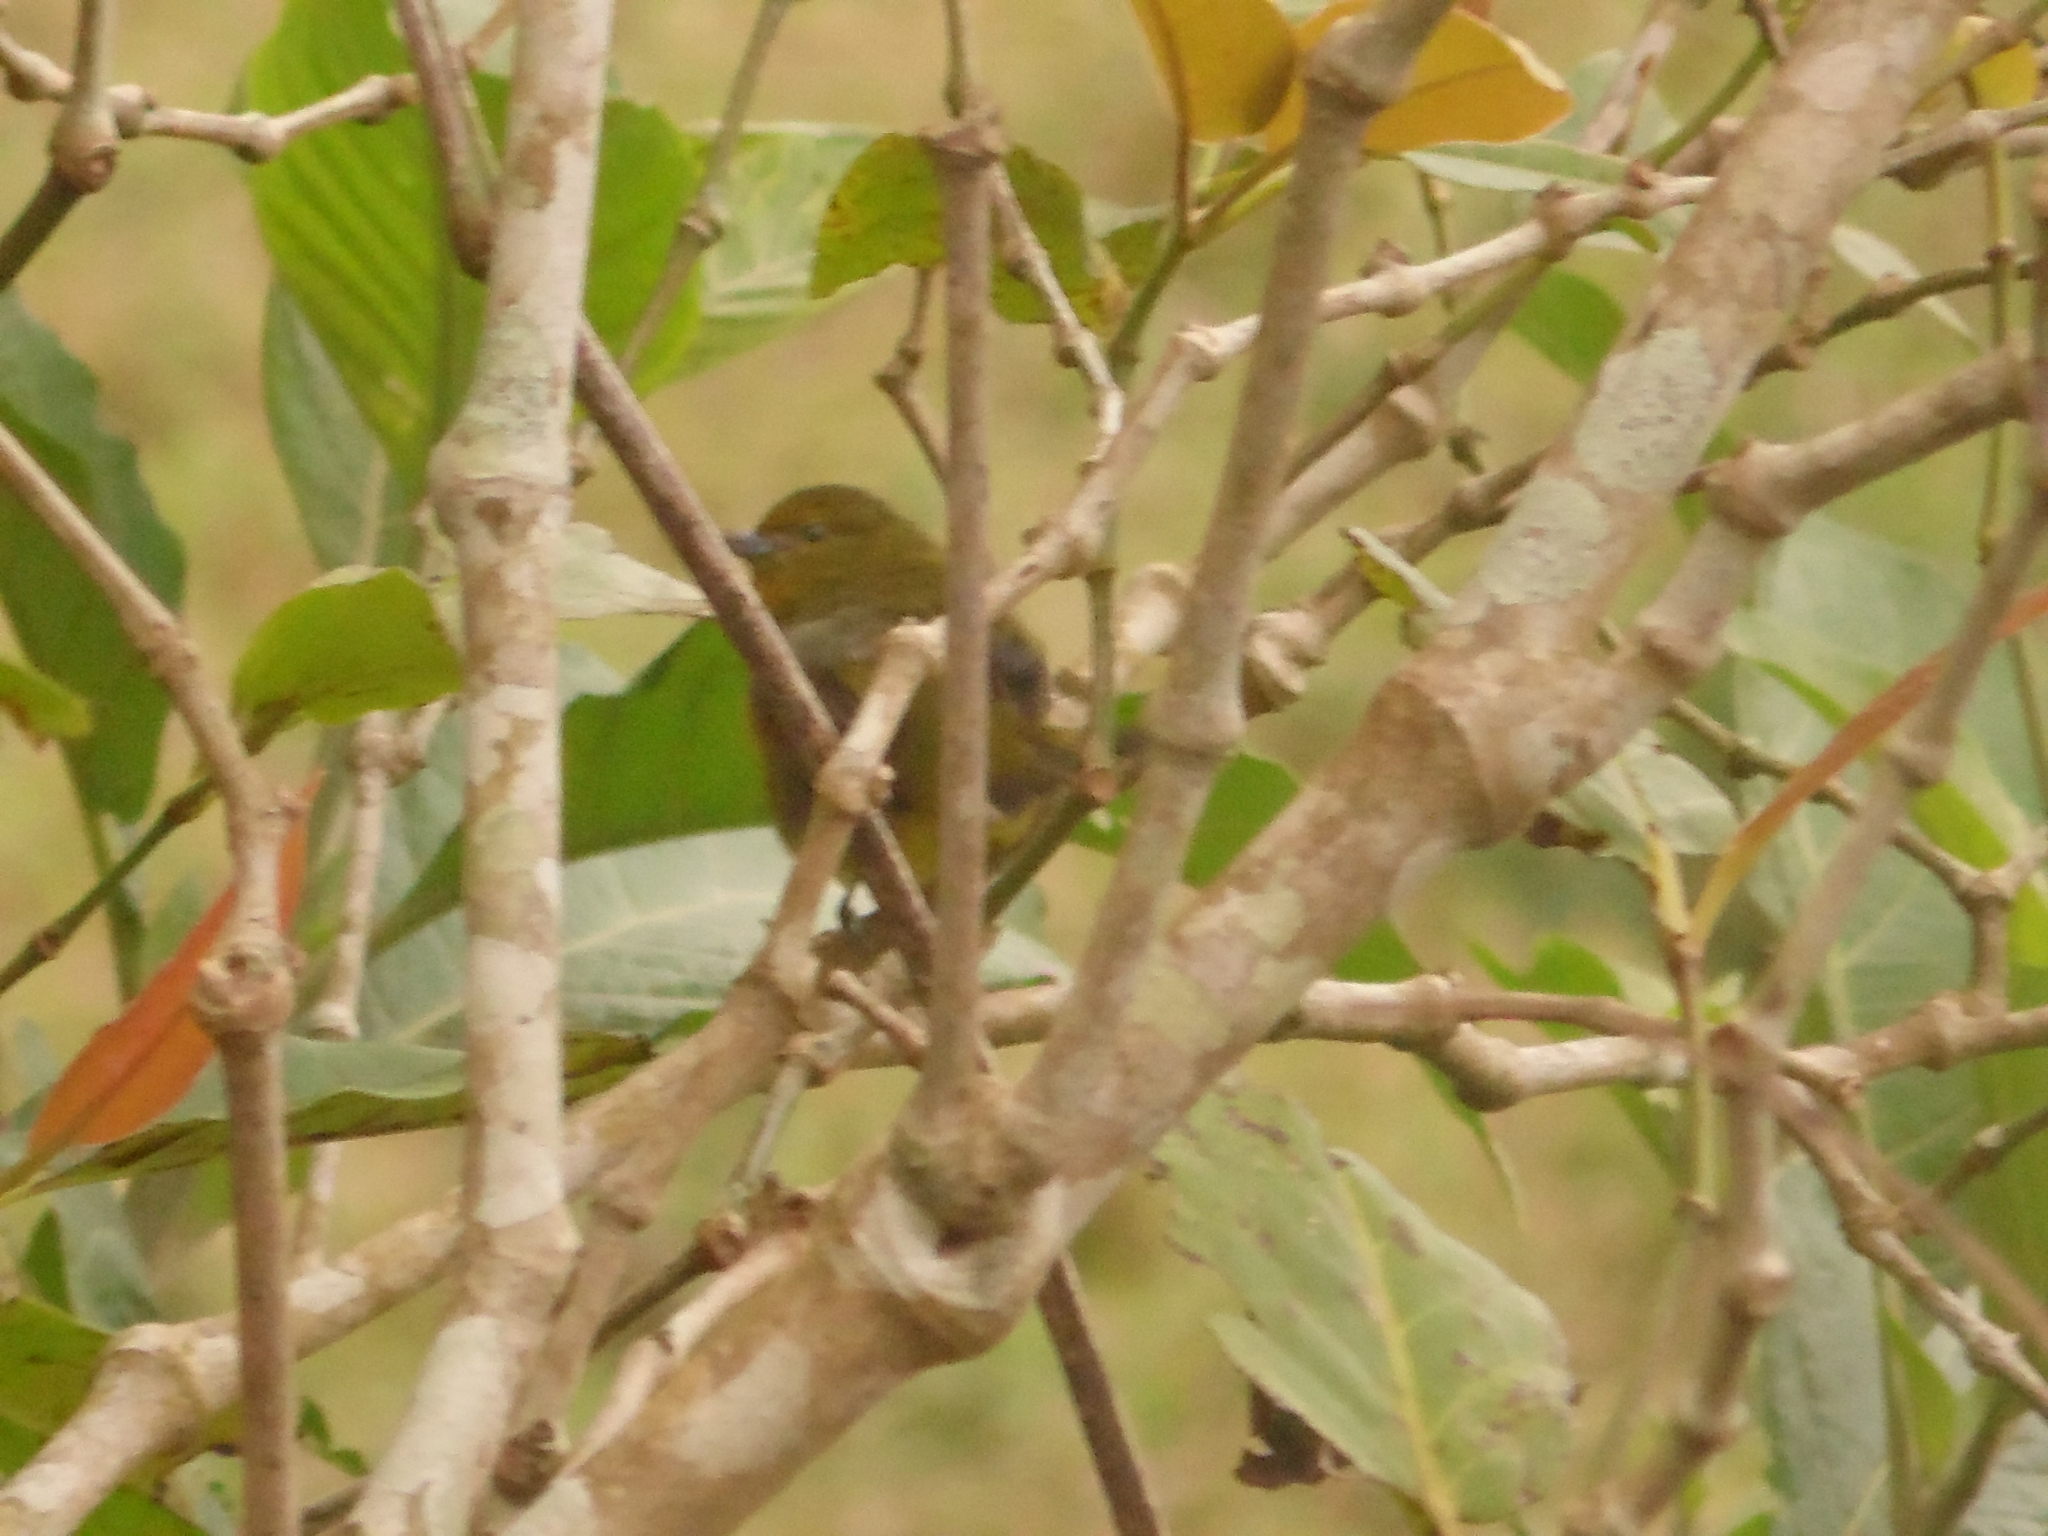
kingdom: Animalia
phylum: Chordata
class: Aves
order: Passeriformes
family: Fringillidae
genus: Euphonia
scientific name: Euphonia violacea
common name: Violaceous euphonia
